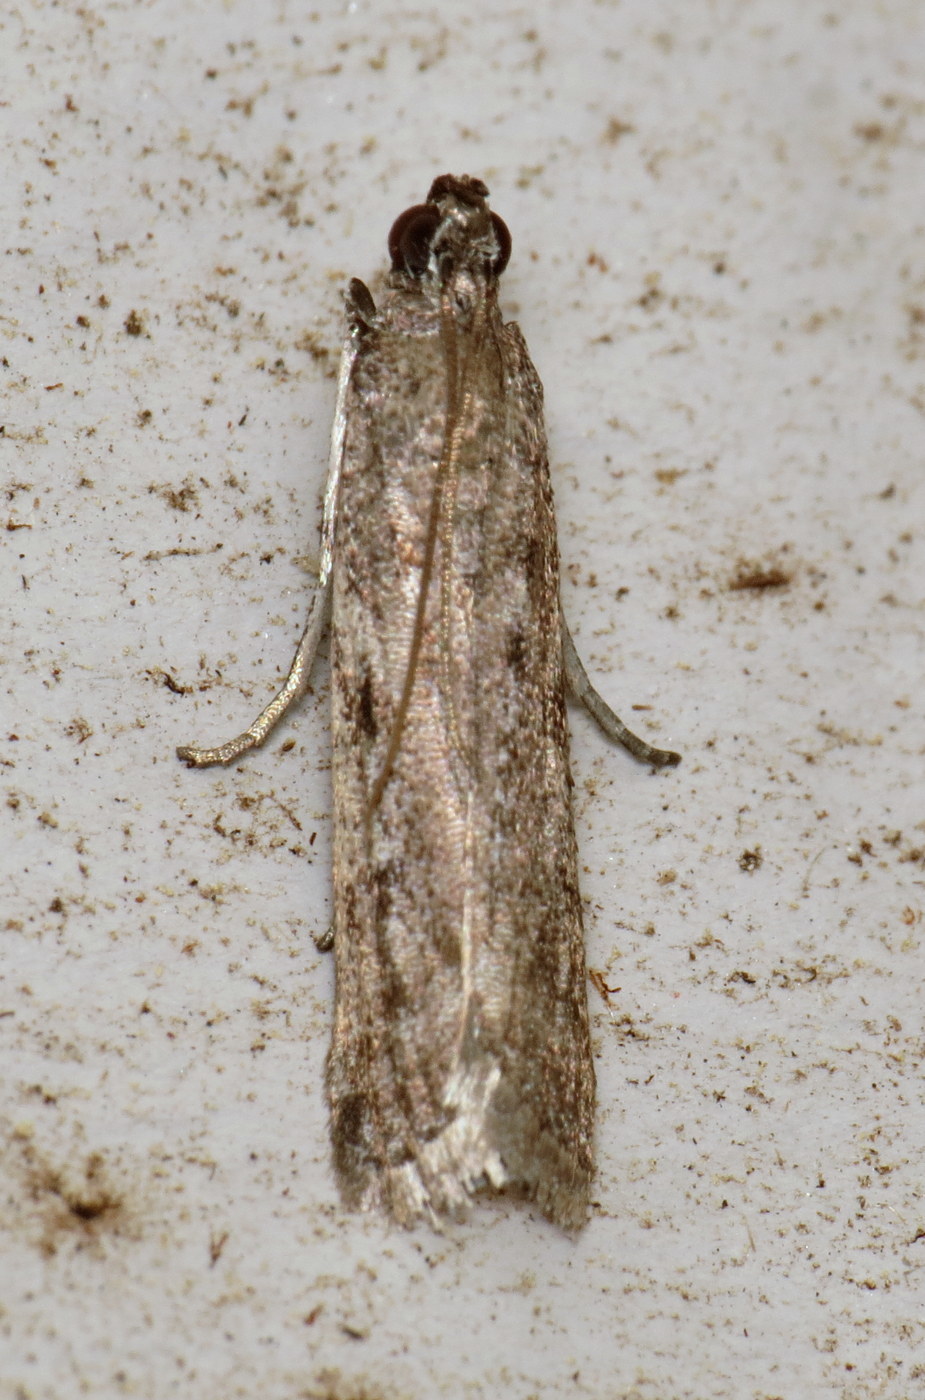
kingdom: Animalia
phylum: Arthropoda
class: Insecta
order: Lepidoptera
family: Pyralidae
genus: Phycitodes
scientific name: Phycitodes mucidellus
